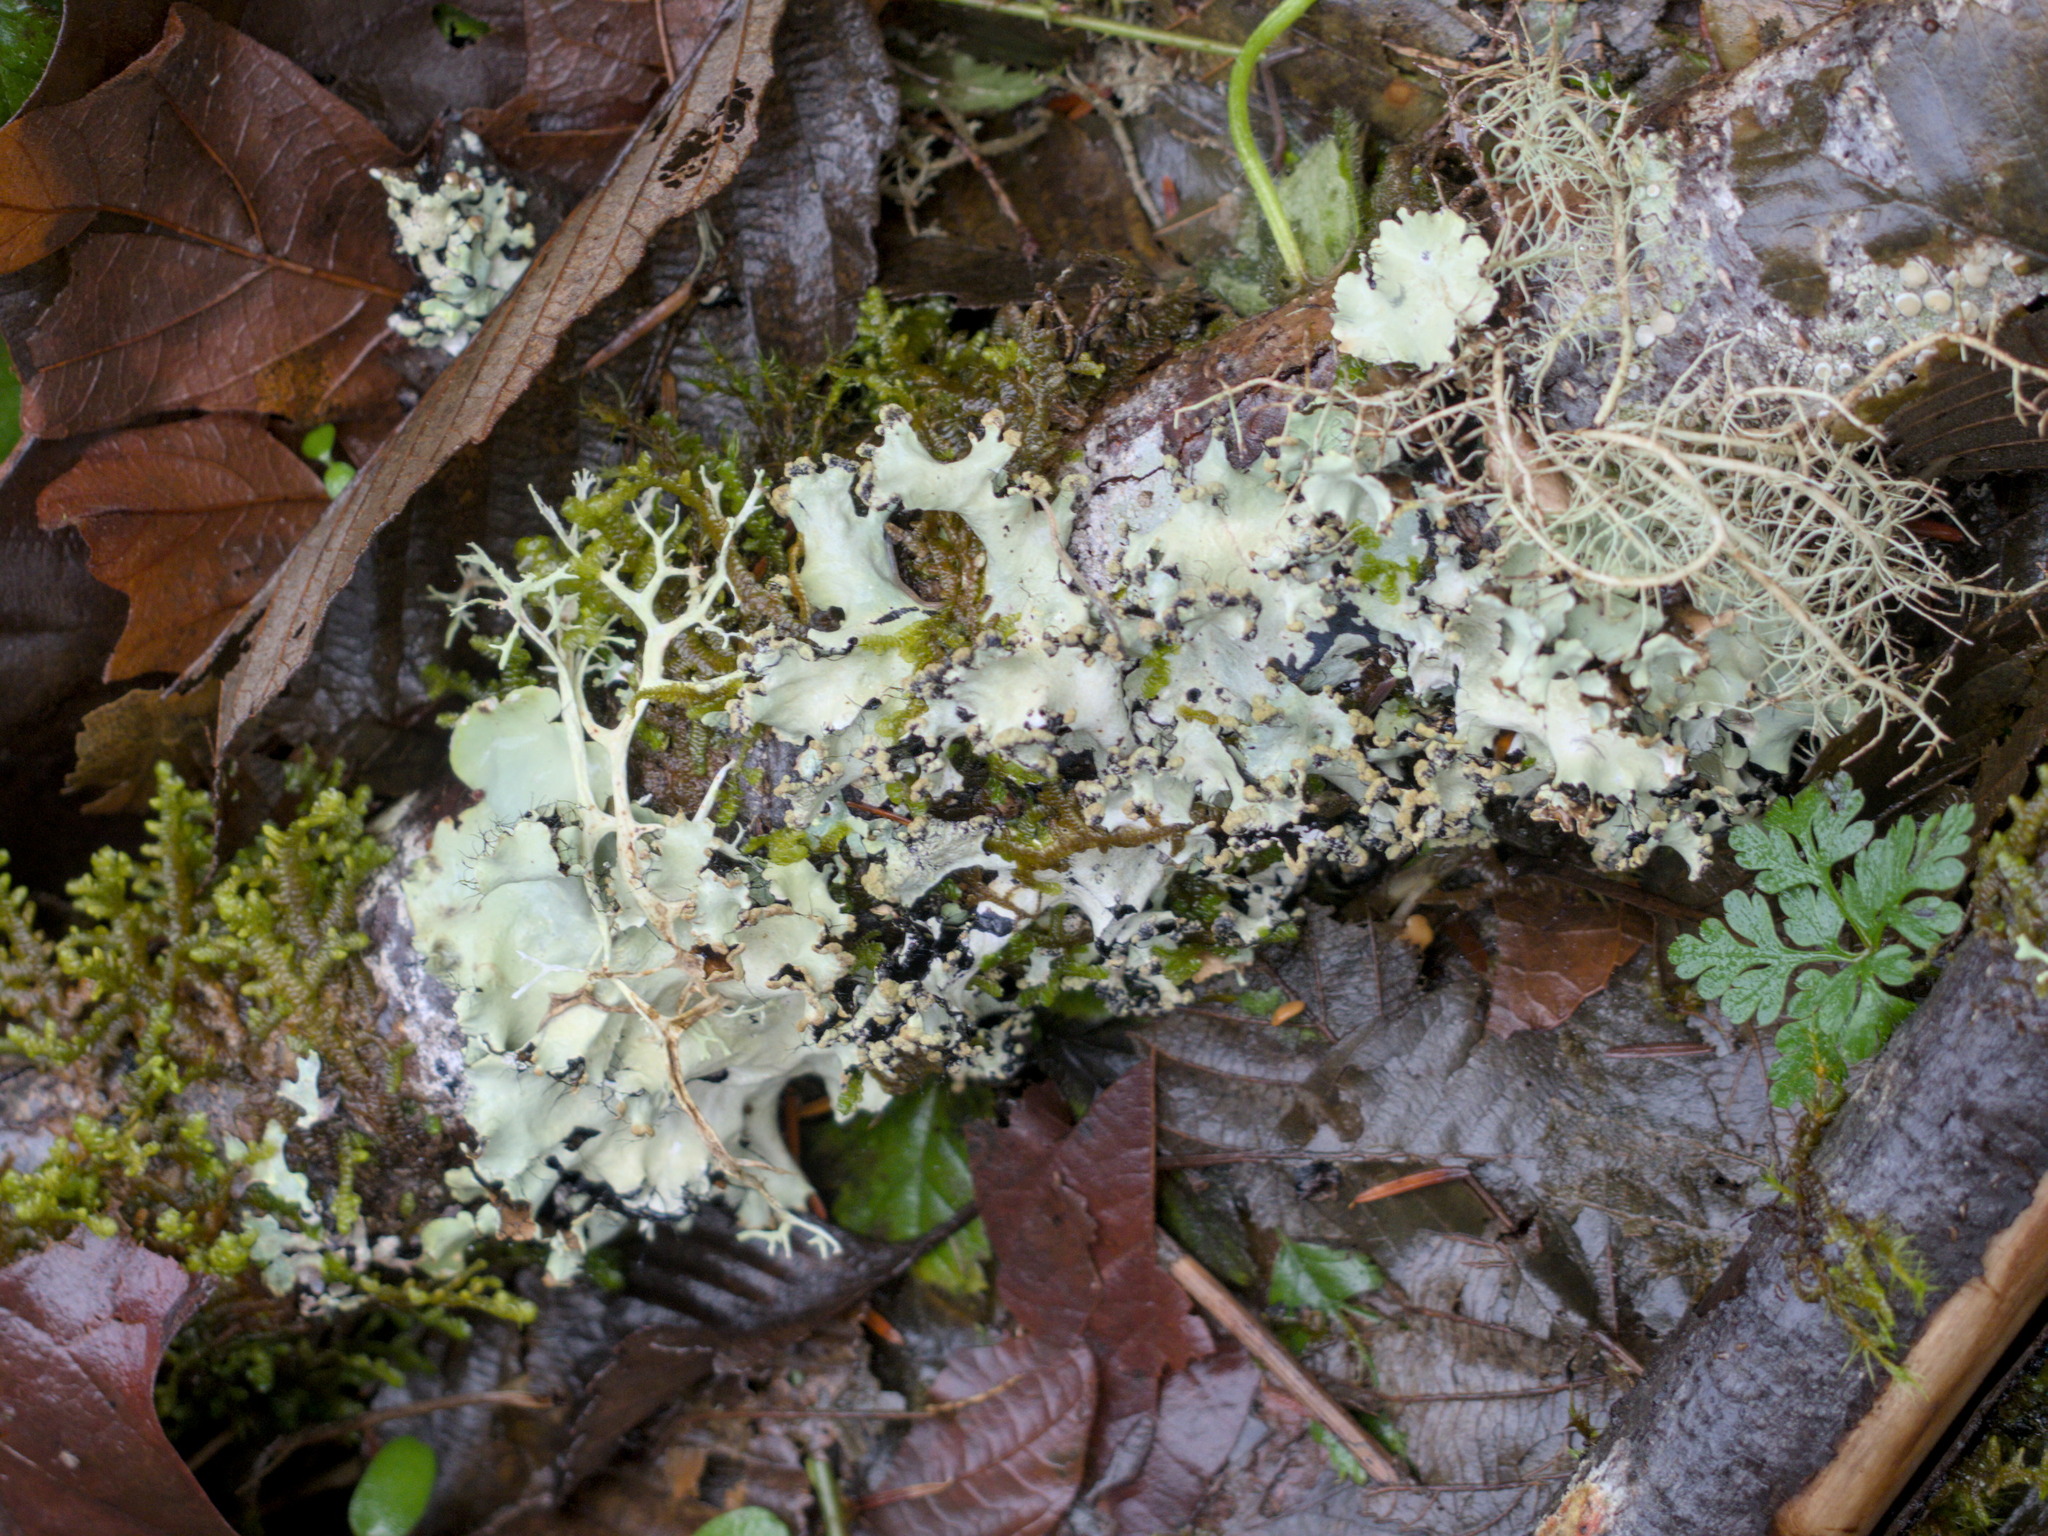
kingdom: Fungi
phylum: Ascomycota
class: Lecanoromycetes
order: Lecanorales
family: Parmeliaceae
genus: Parmotrema
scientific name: Parmotrema perlatum
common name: Black stone flower
